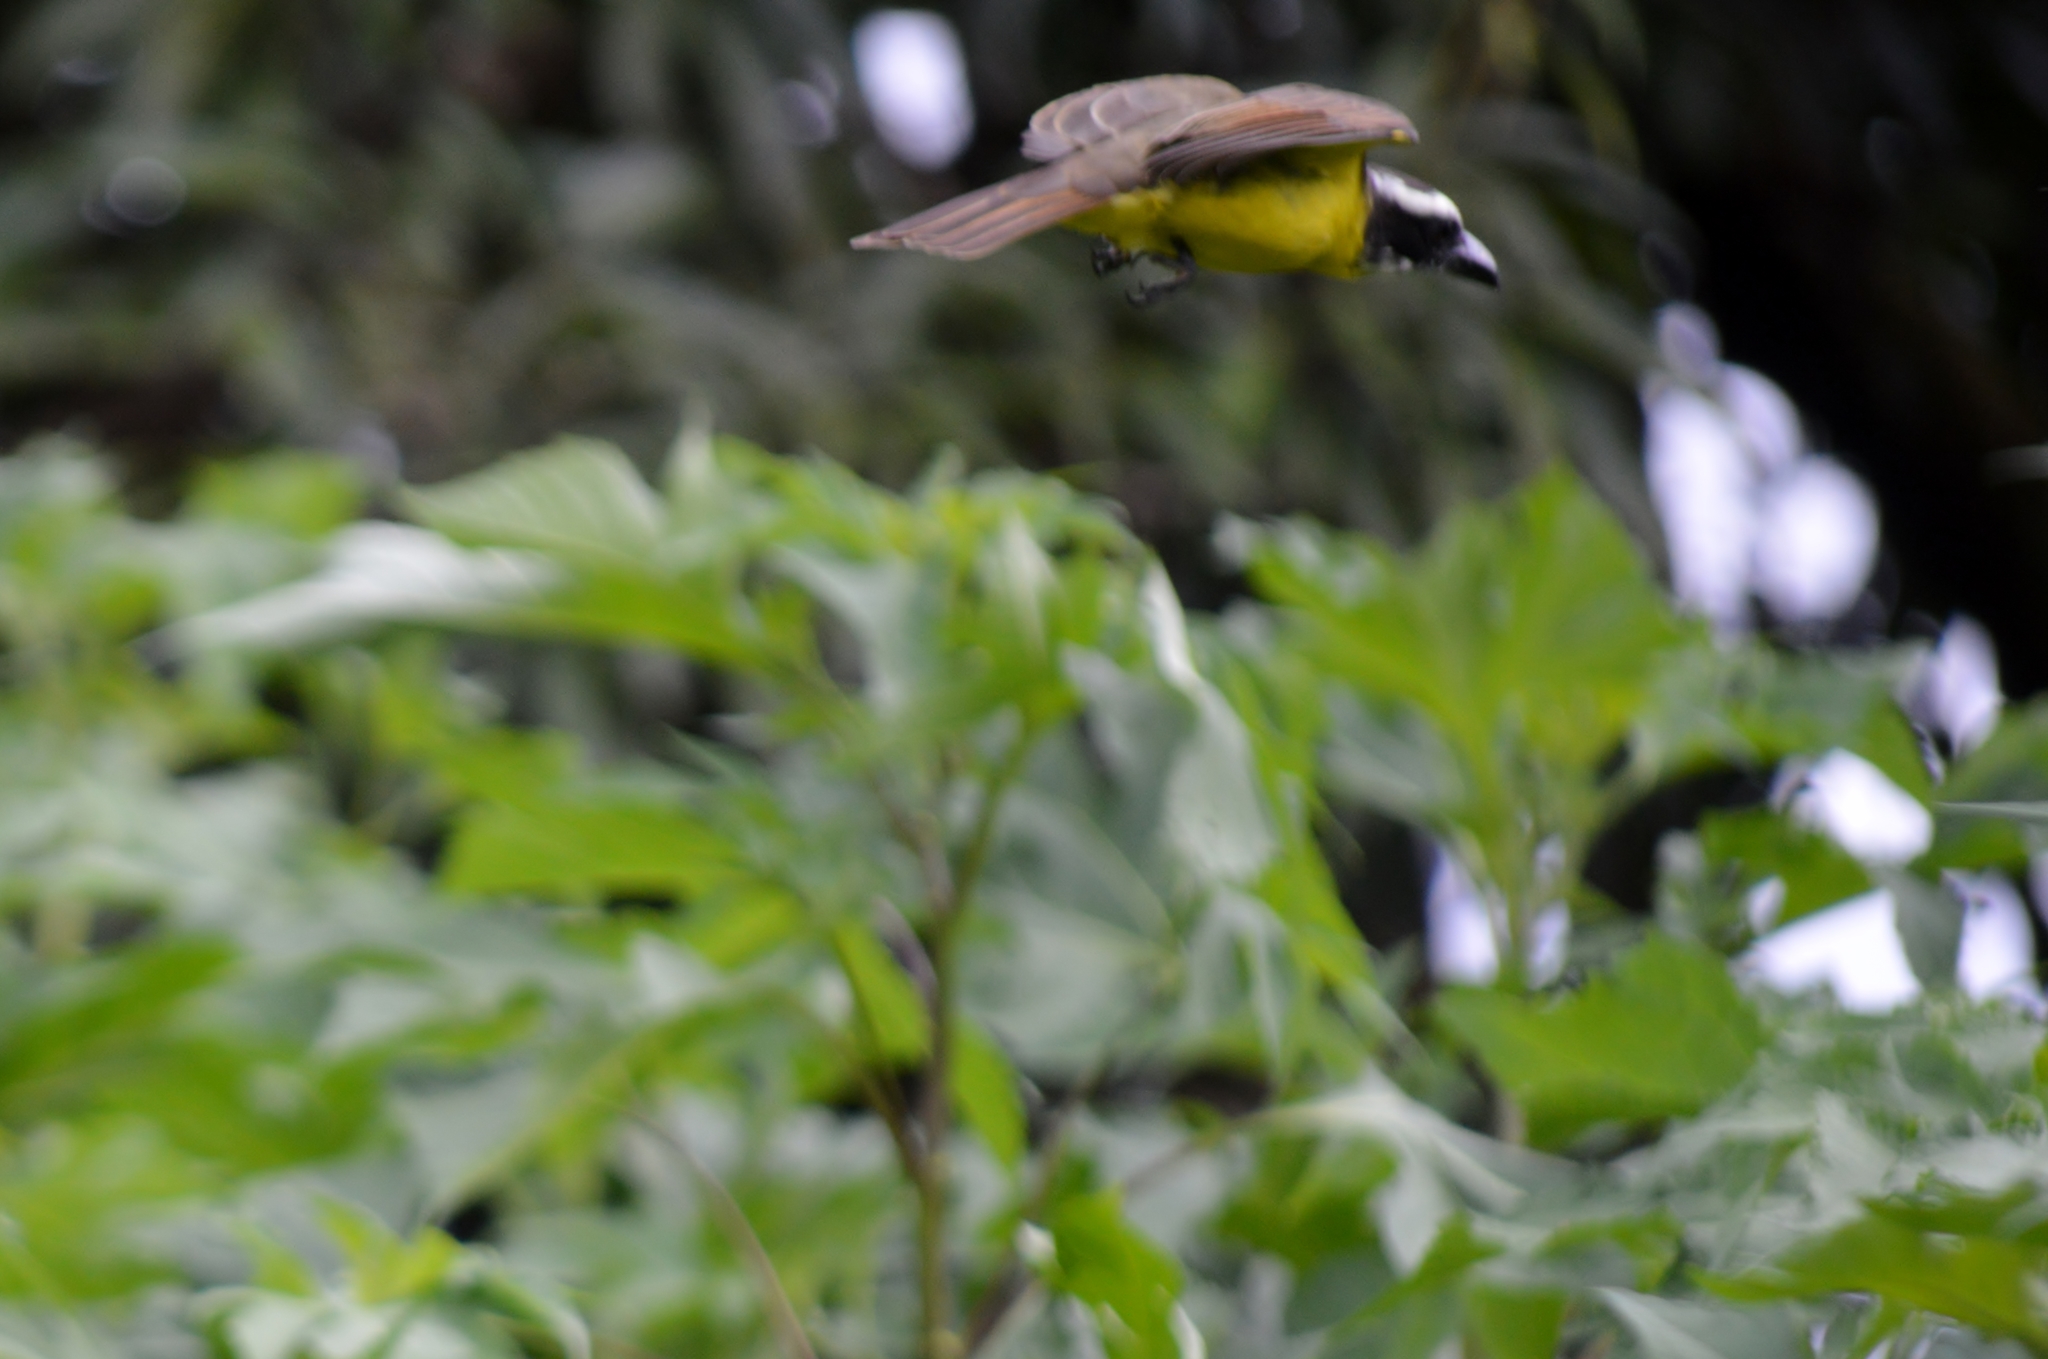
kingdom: Animalia
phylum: Chordata
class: Aves
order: Passeriformes
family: Tyrannidae
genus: Megarynchus
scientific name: Megarynchus pitangua
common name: Boat-billed flycatcher
